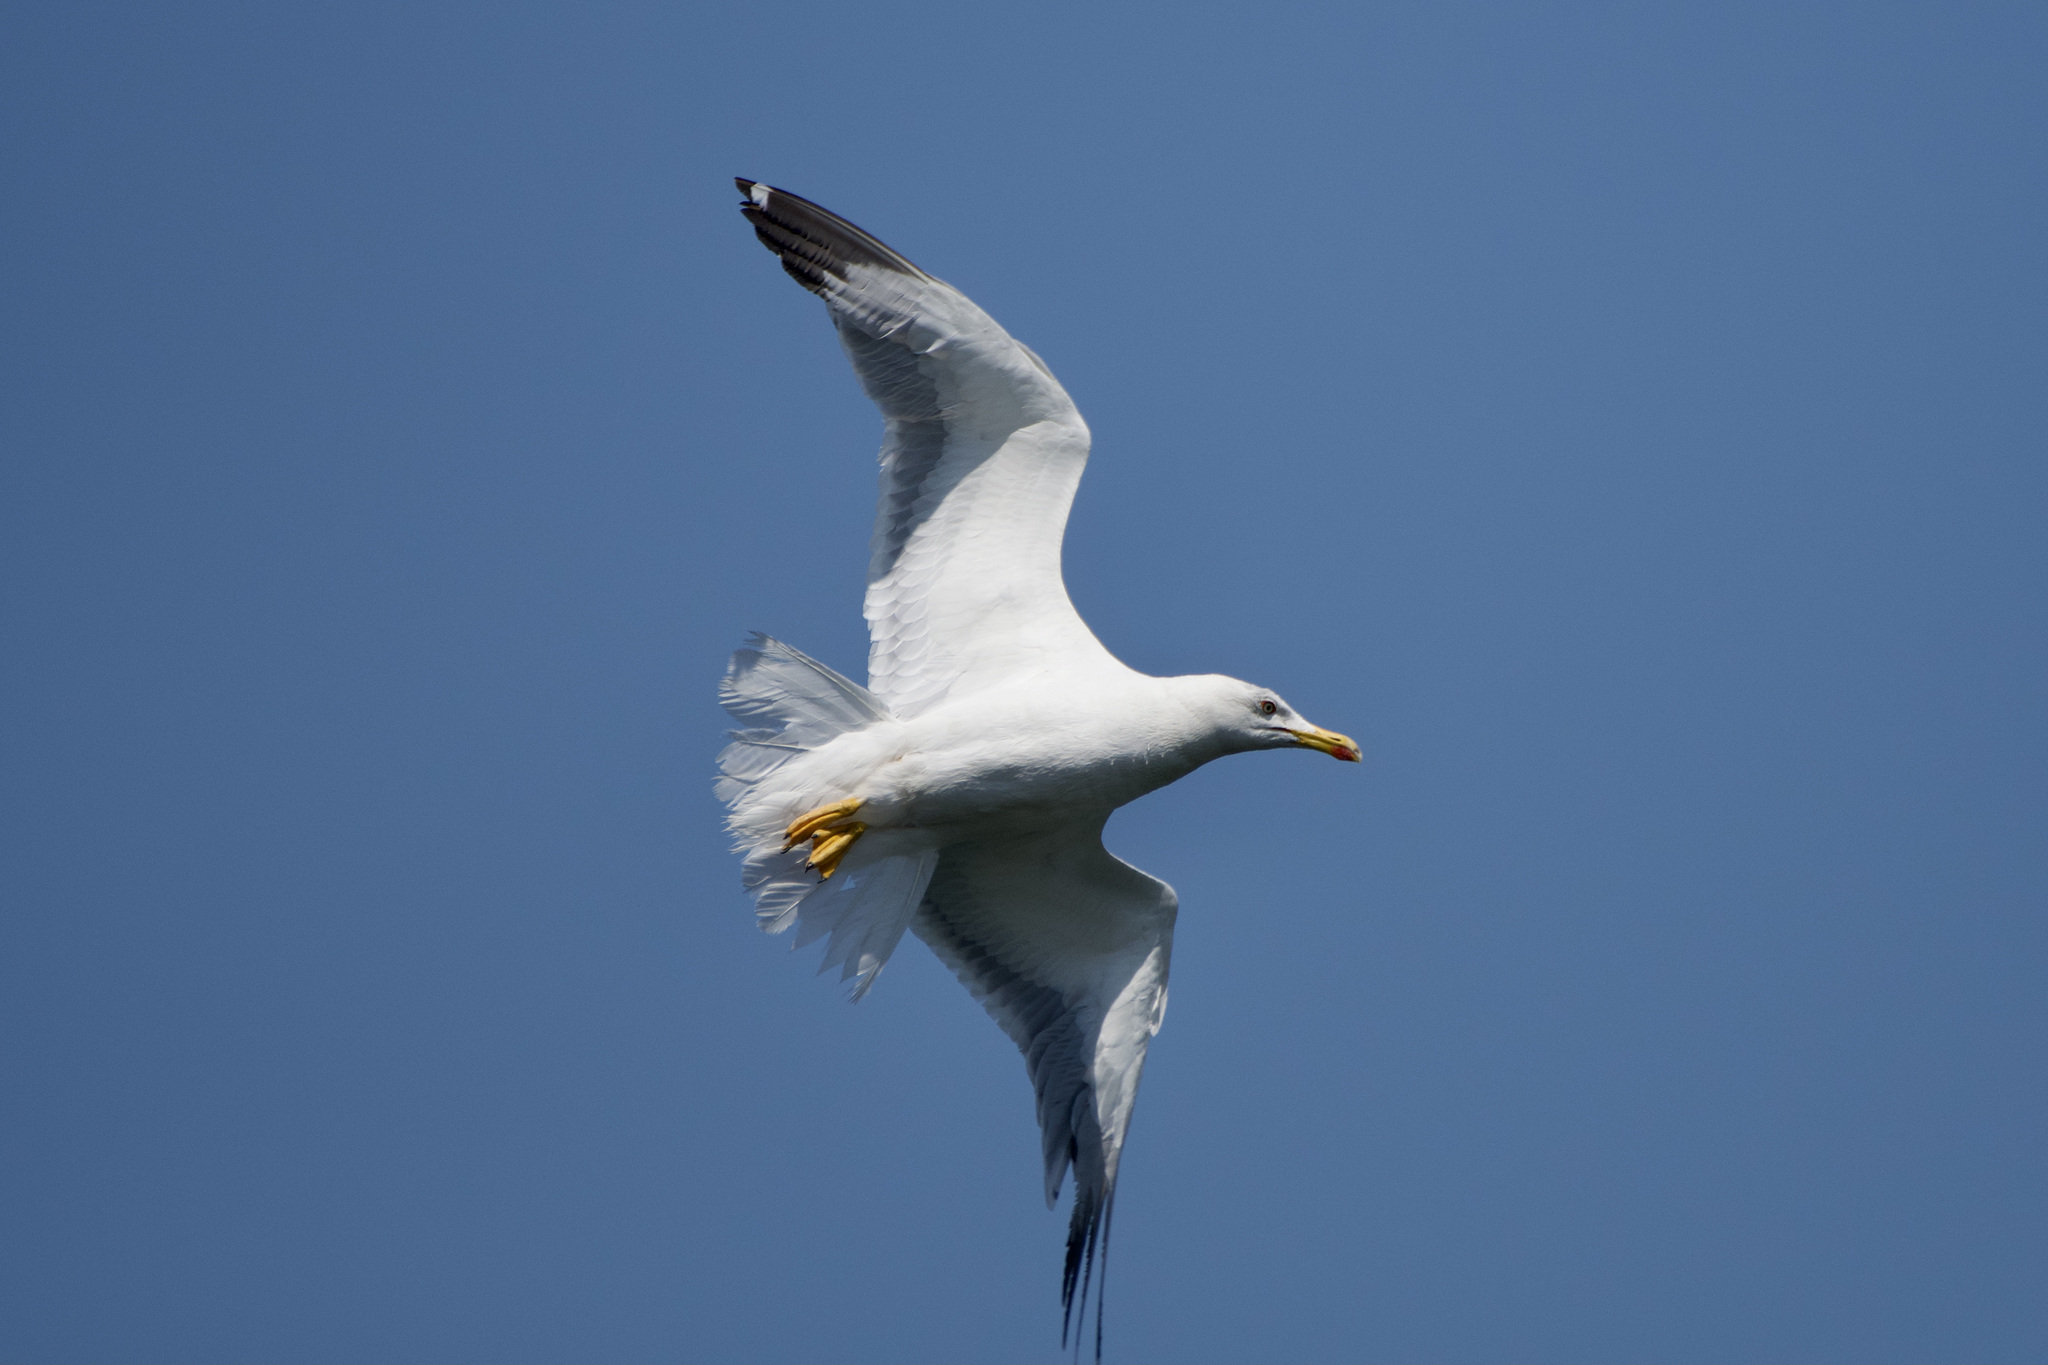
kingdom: Animalia
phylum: Chordata
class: Aves
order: Charadriiformes
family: Laridae
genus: Larus
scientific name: Larus michahellis
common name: Yellow-legged gull
